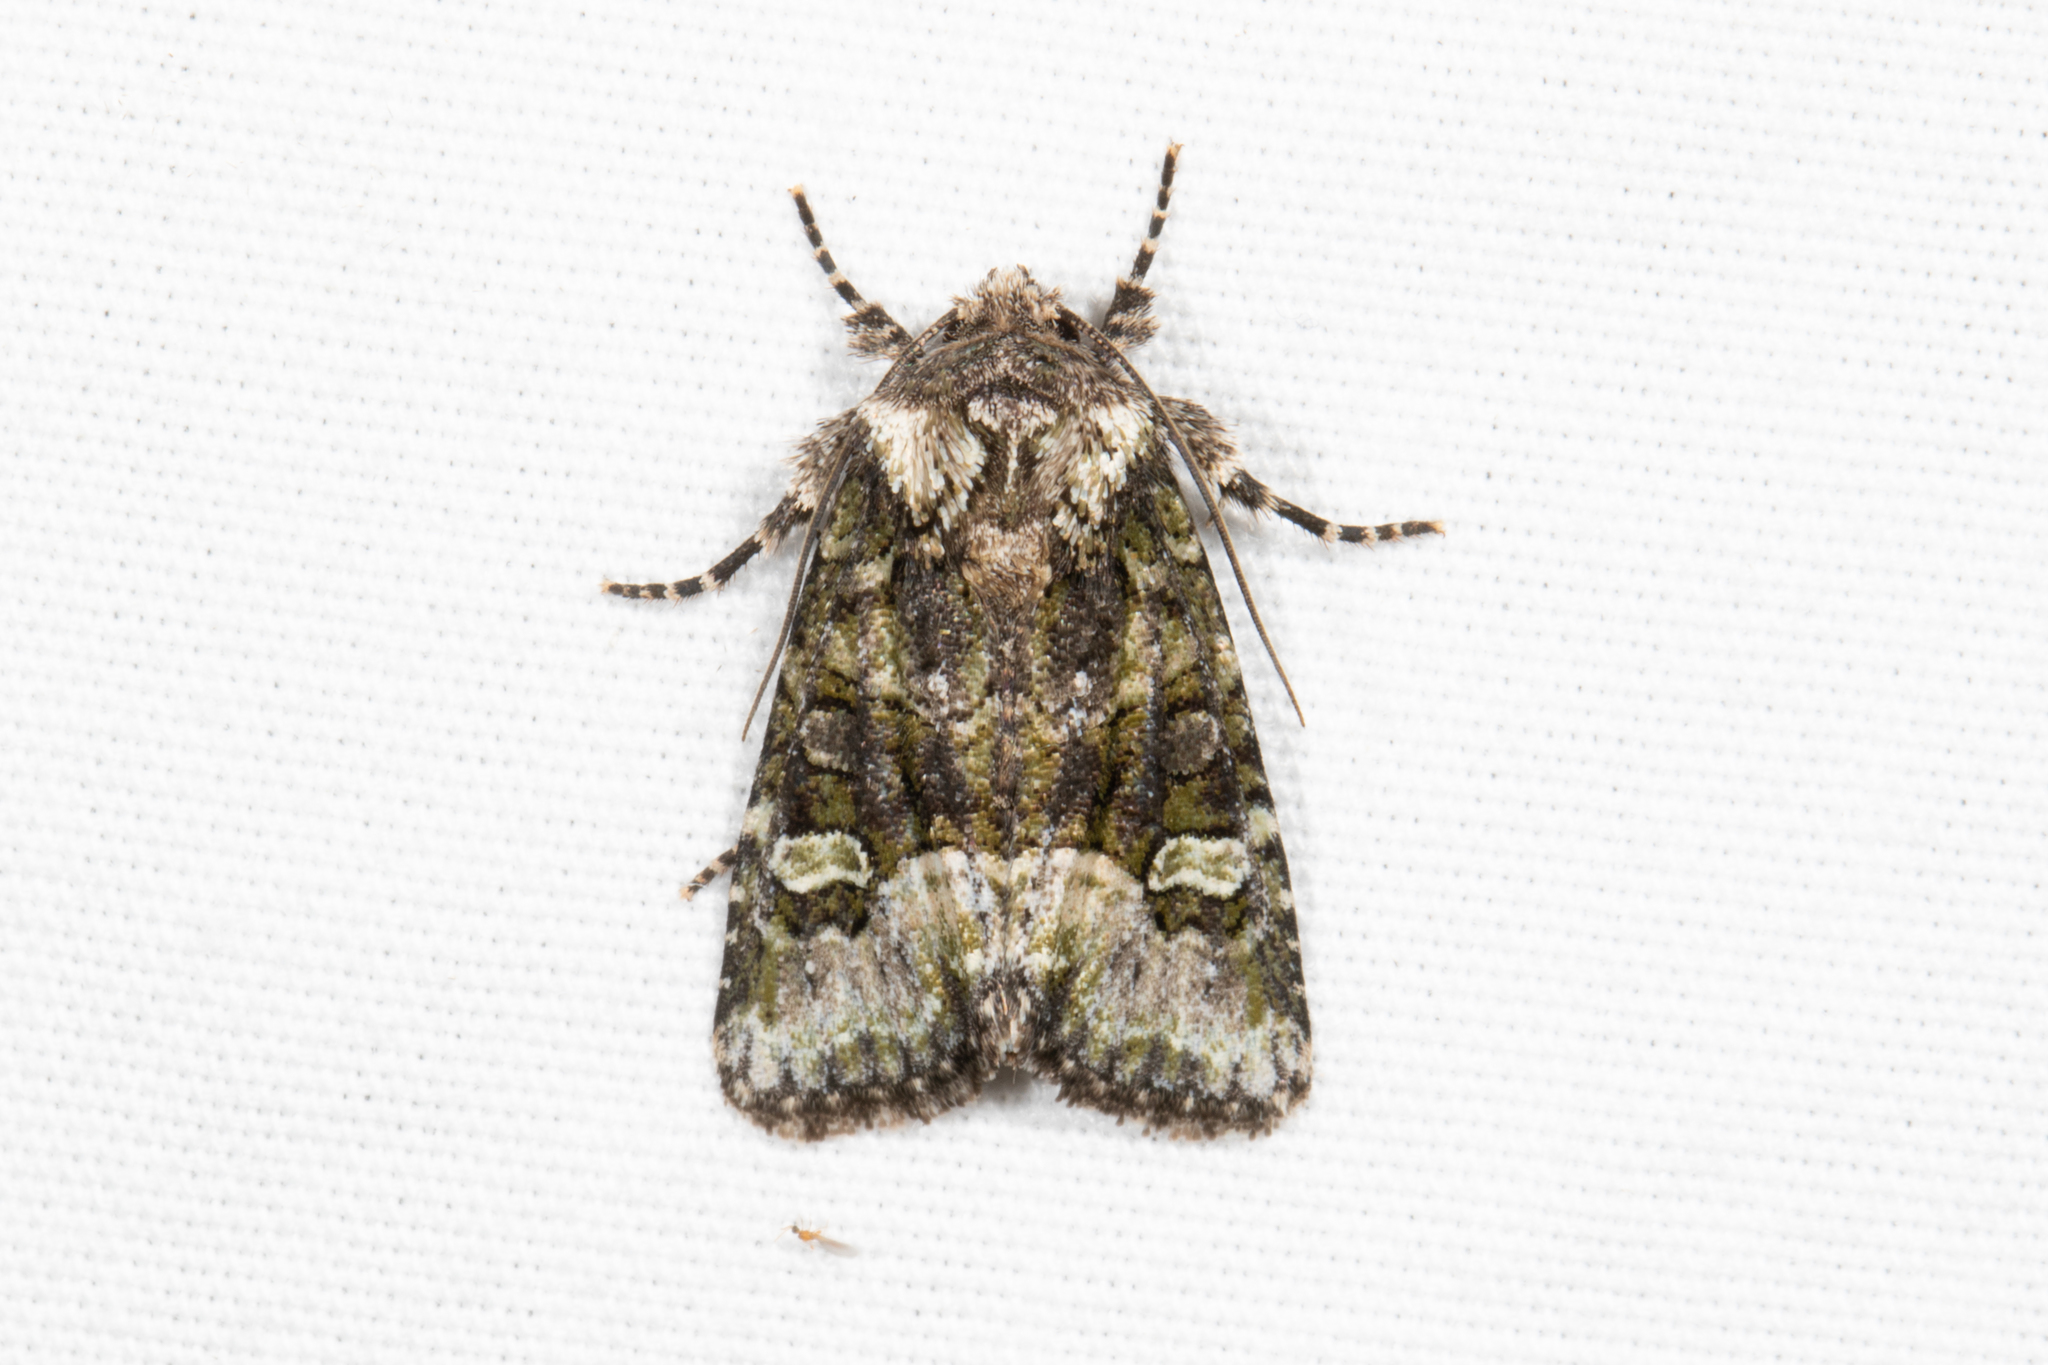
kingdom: Animalia
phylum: Arthropoda
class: Insecta
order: Lepidoptera
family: Noctuidae
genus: Lacinipolia
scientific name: Lacinipolia olivacea
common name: Olive arches moth
